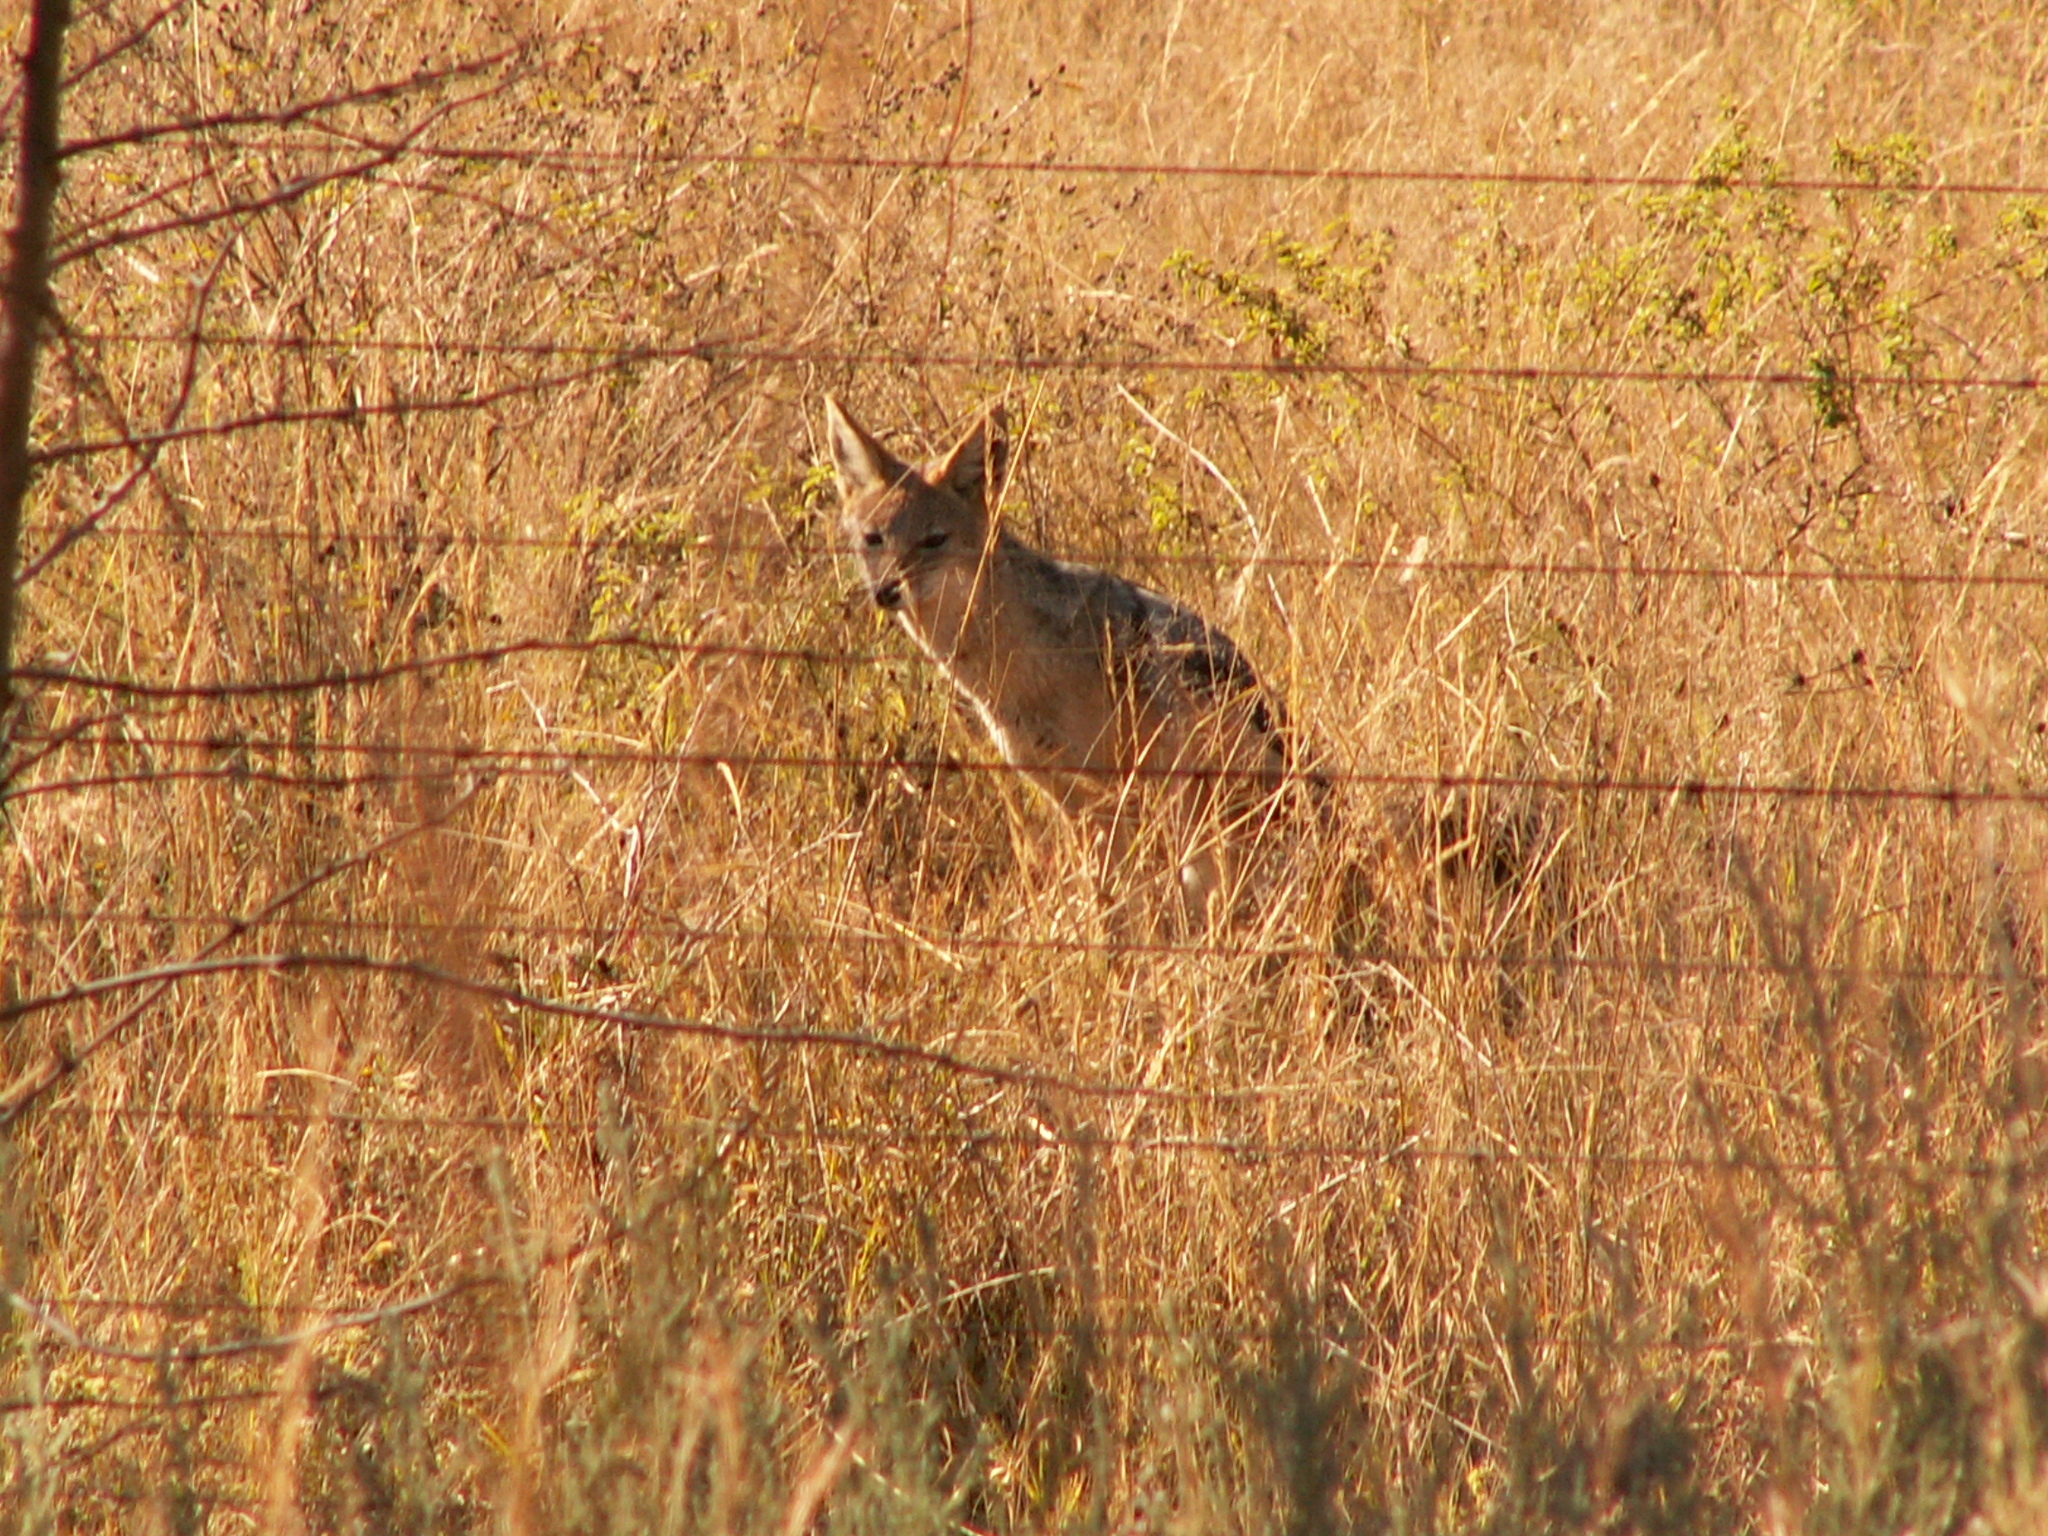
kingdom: Animalia
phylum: Chordata
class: Mammalia
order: Carnivora
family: Canidae
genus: Lupulella
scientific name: Lupulella
